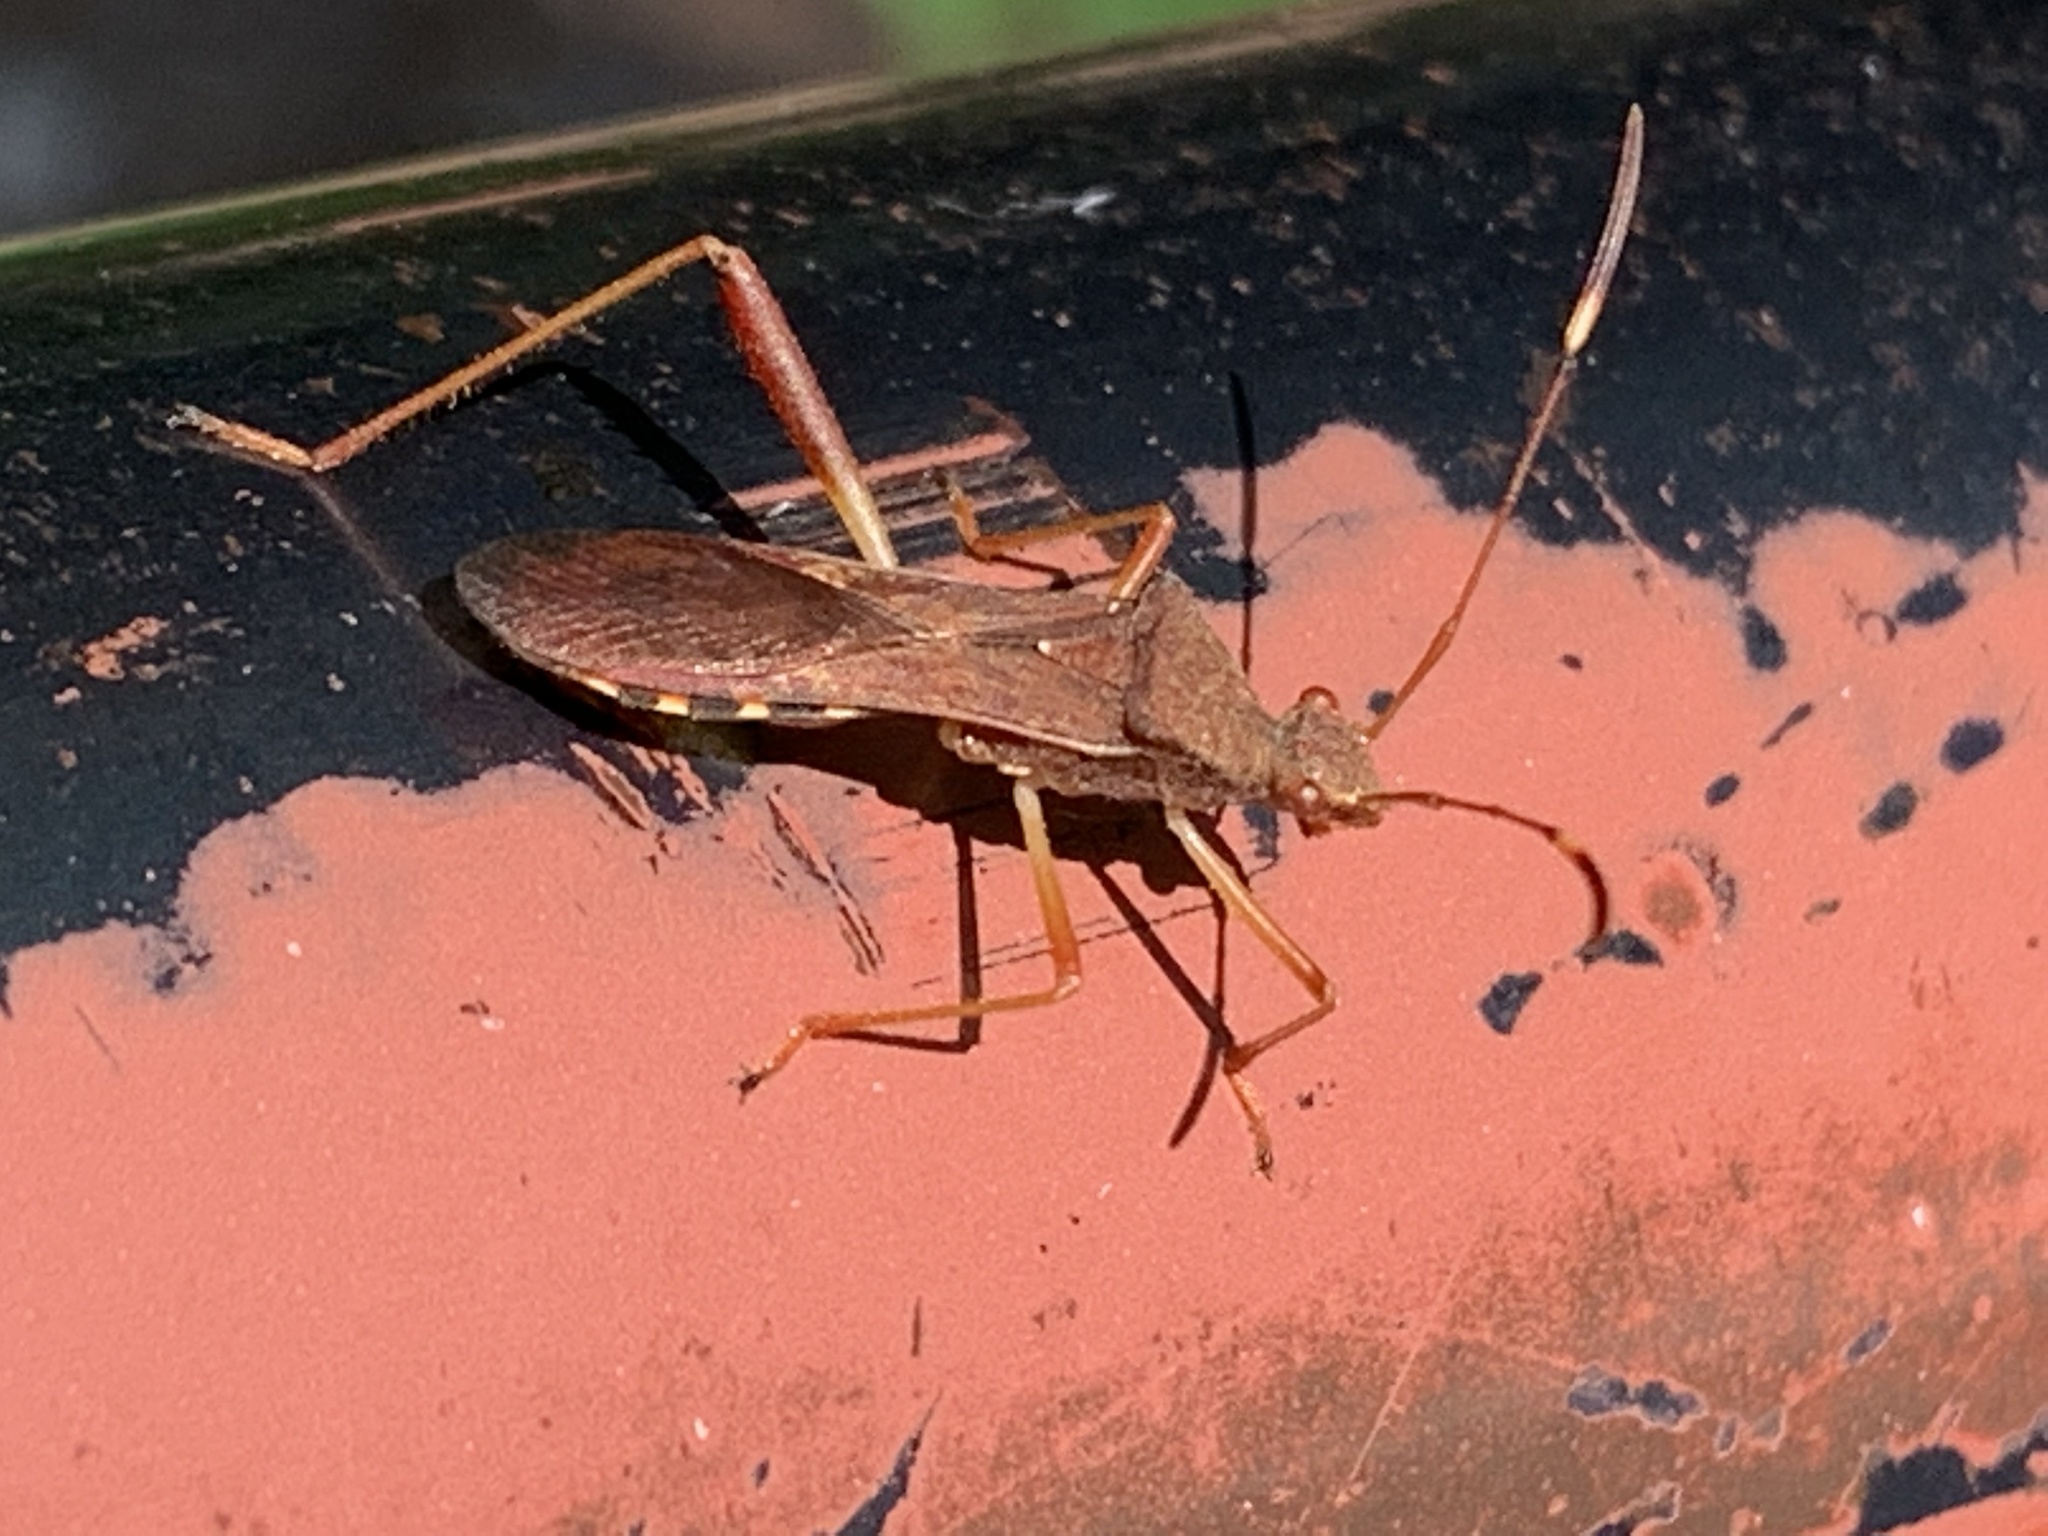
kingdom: Animalia
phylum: Arthropoda
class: Insecta
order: Hemiptera
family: Alydidae
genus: Megalotomus
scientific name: Megalotomus quinquespinosus
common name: Lupine bug
